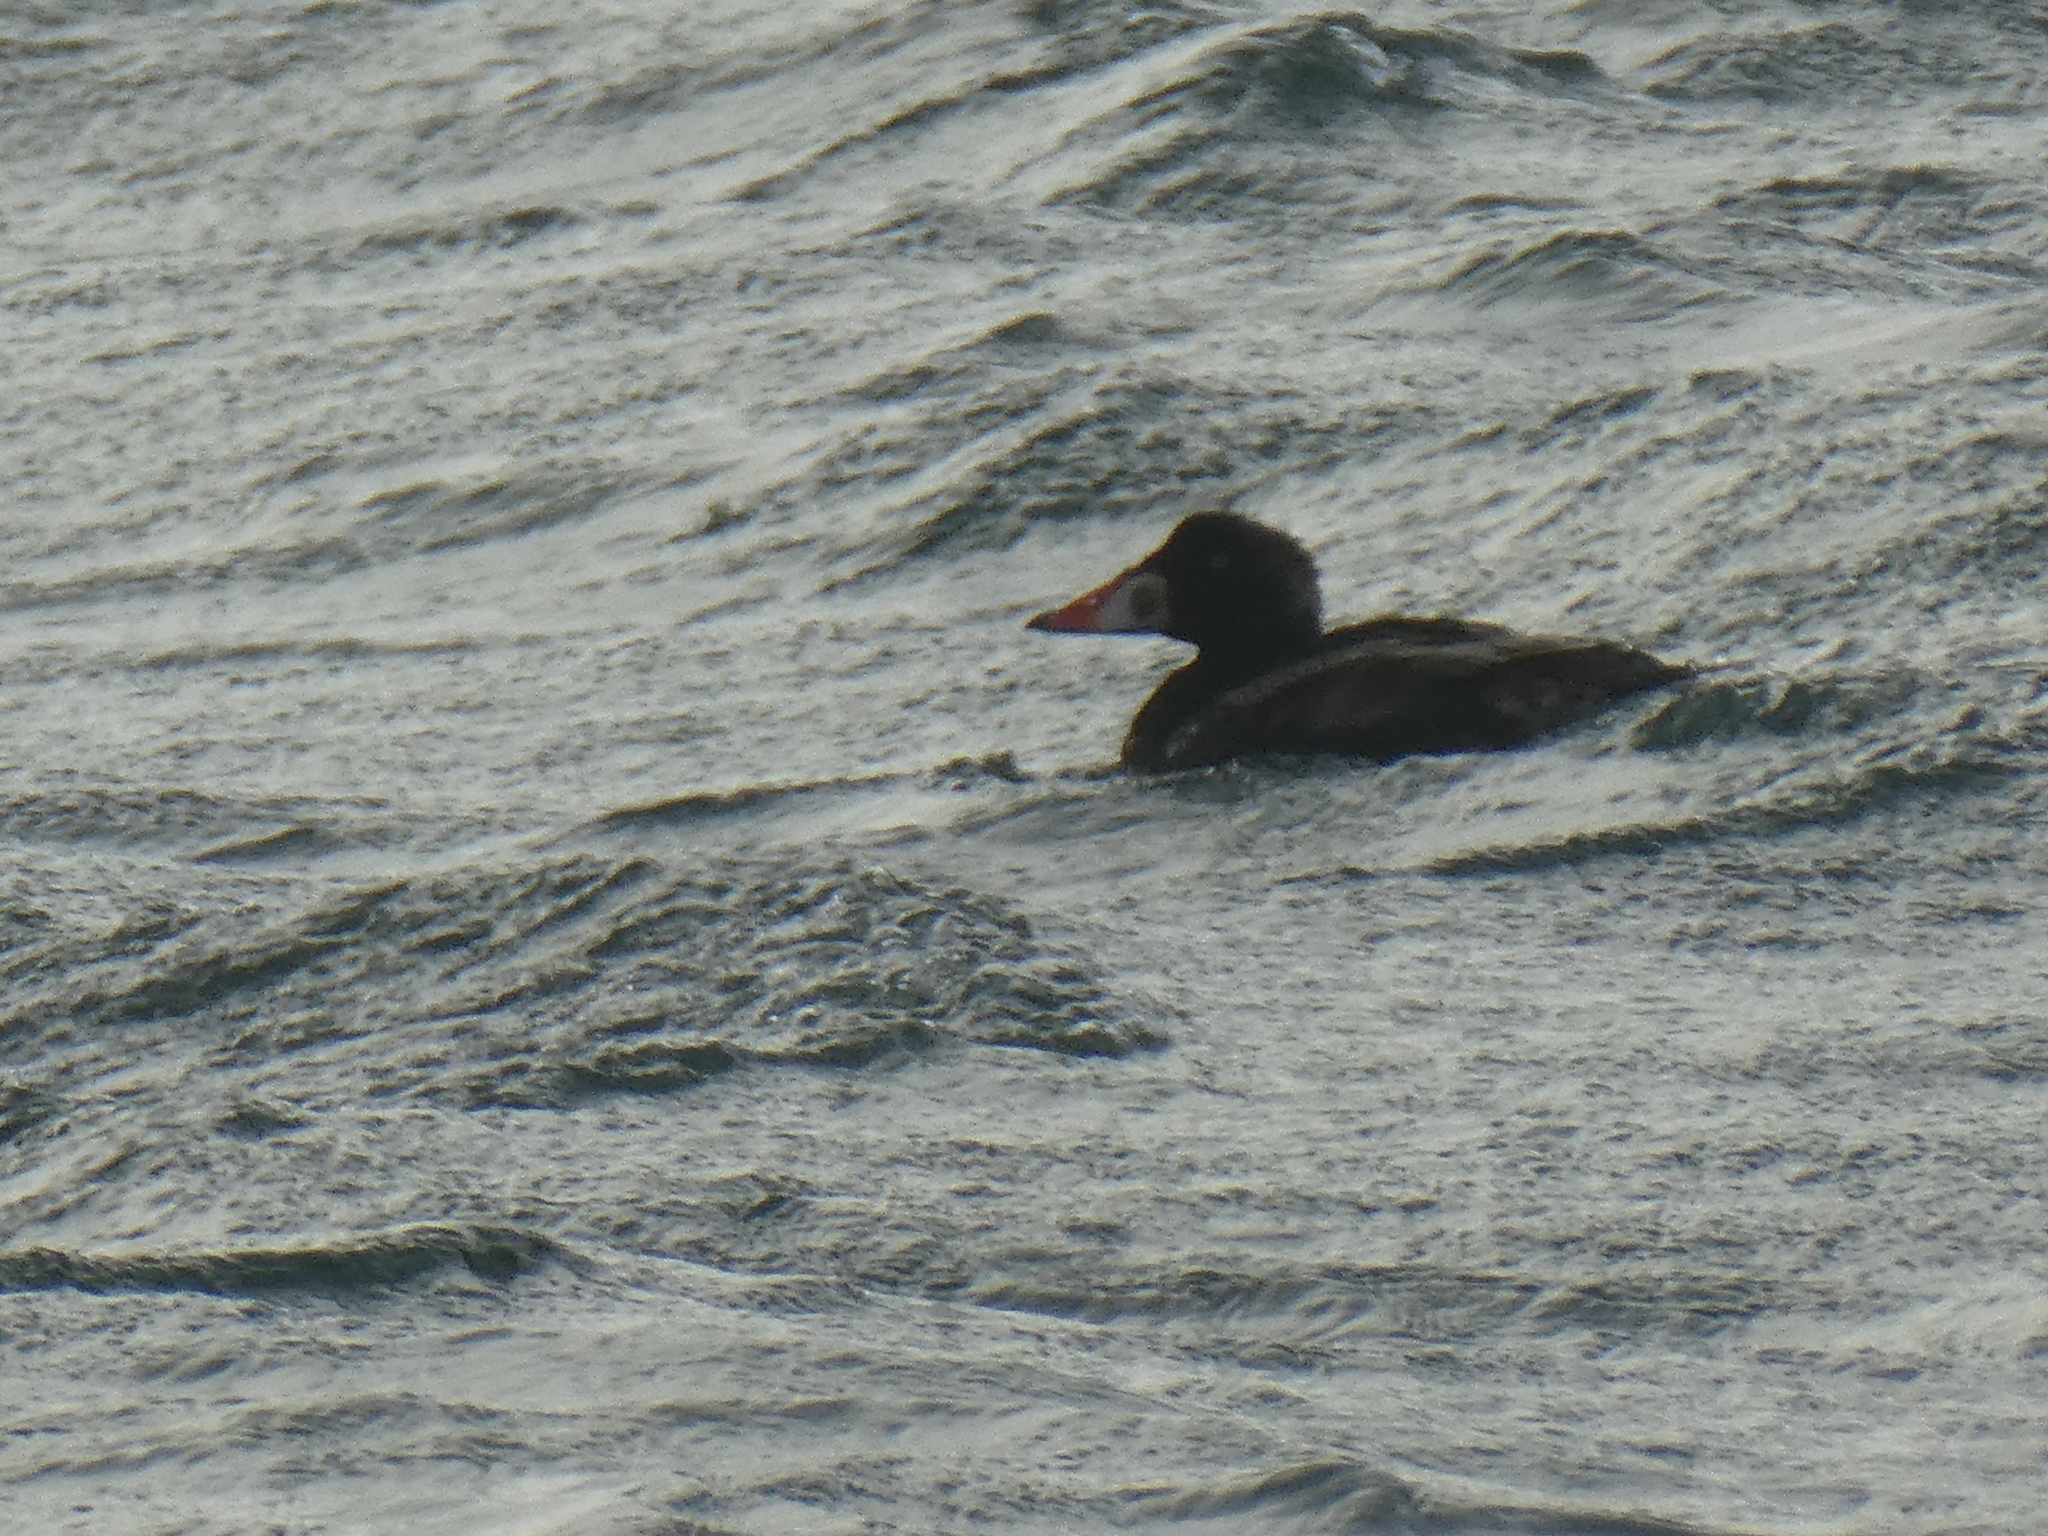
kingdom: Animalia
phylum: Chordata
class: Aves
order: Anseriformes
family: Anatidae
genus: Melanitta
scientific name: Melanitta perspicillata
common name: Surf scoter
